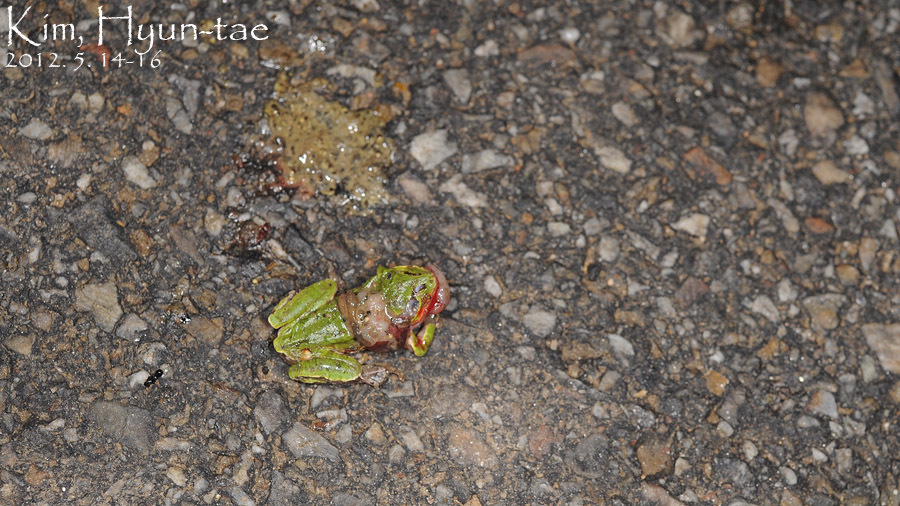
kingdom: Animalia
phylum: Chordata
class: Amphibia
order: Anura
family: Hylidae
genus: Dryophytes
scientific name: Dryophytes japonicus
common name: Japanese treefrog
